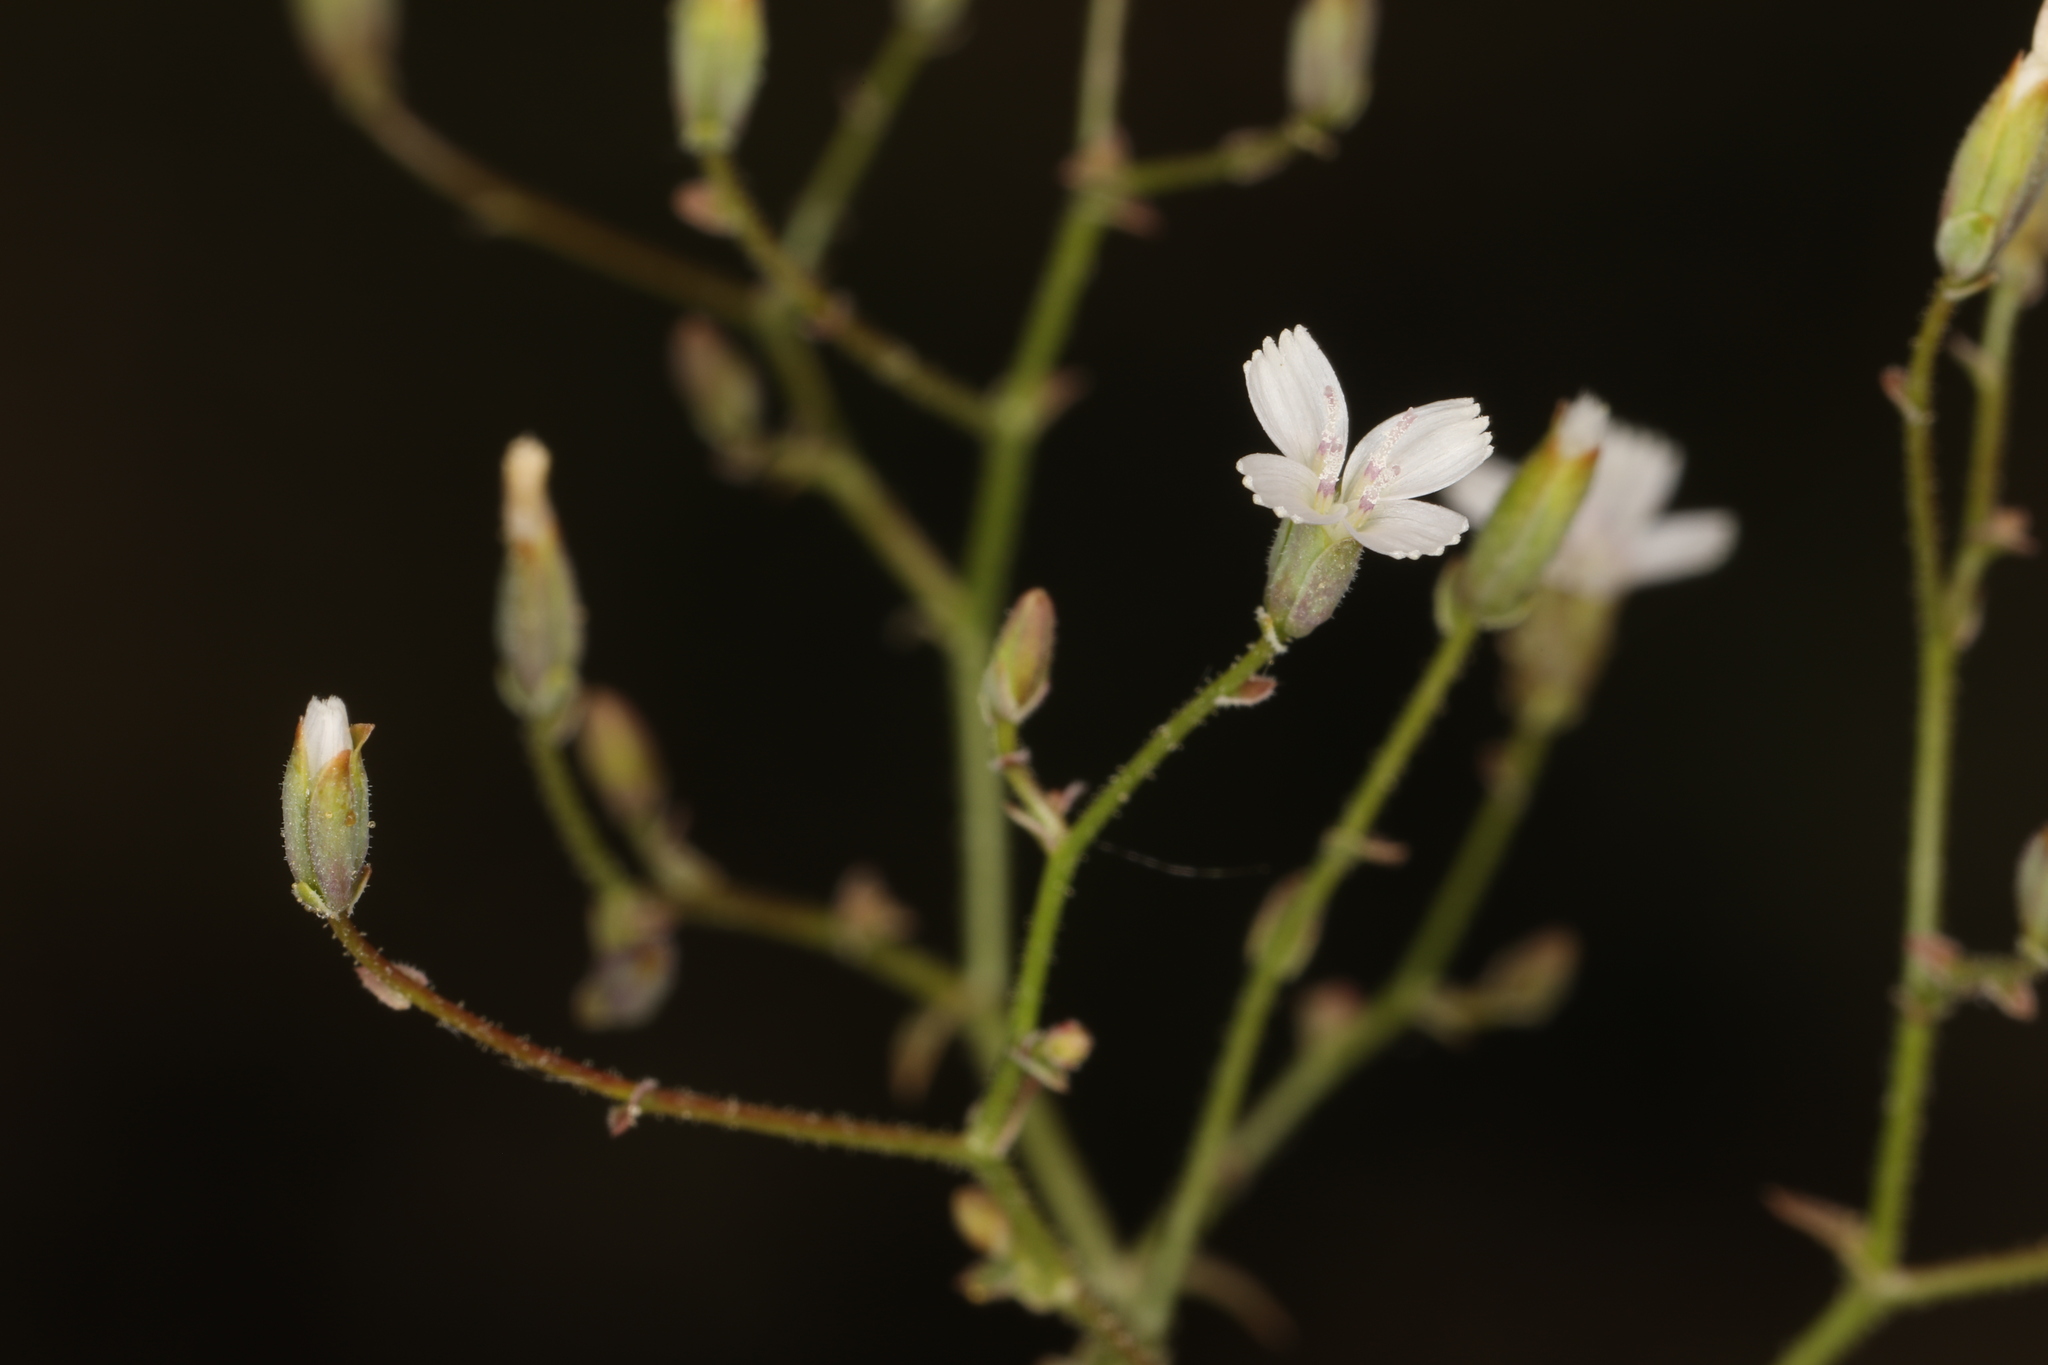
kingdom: Plantae
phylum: Tracheophyta
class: Magnoliopsida
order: Asterales
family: Asteraceae
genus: Lygodesmia
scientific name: Lygodesmia exigua
